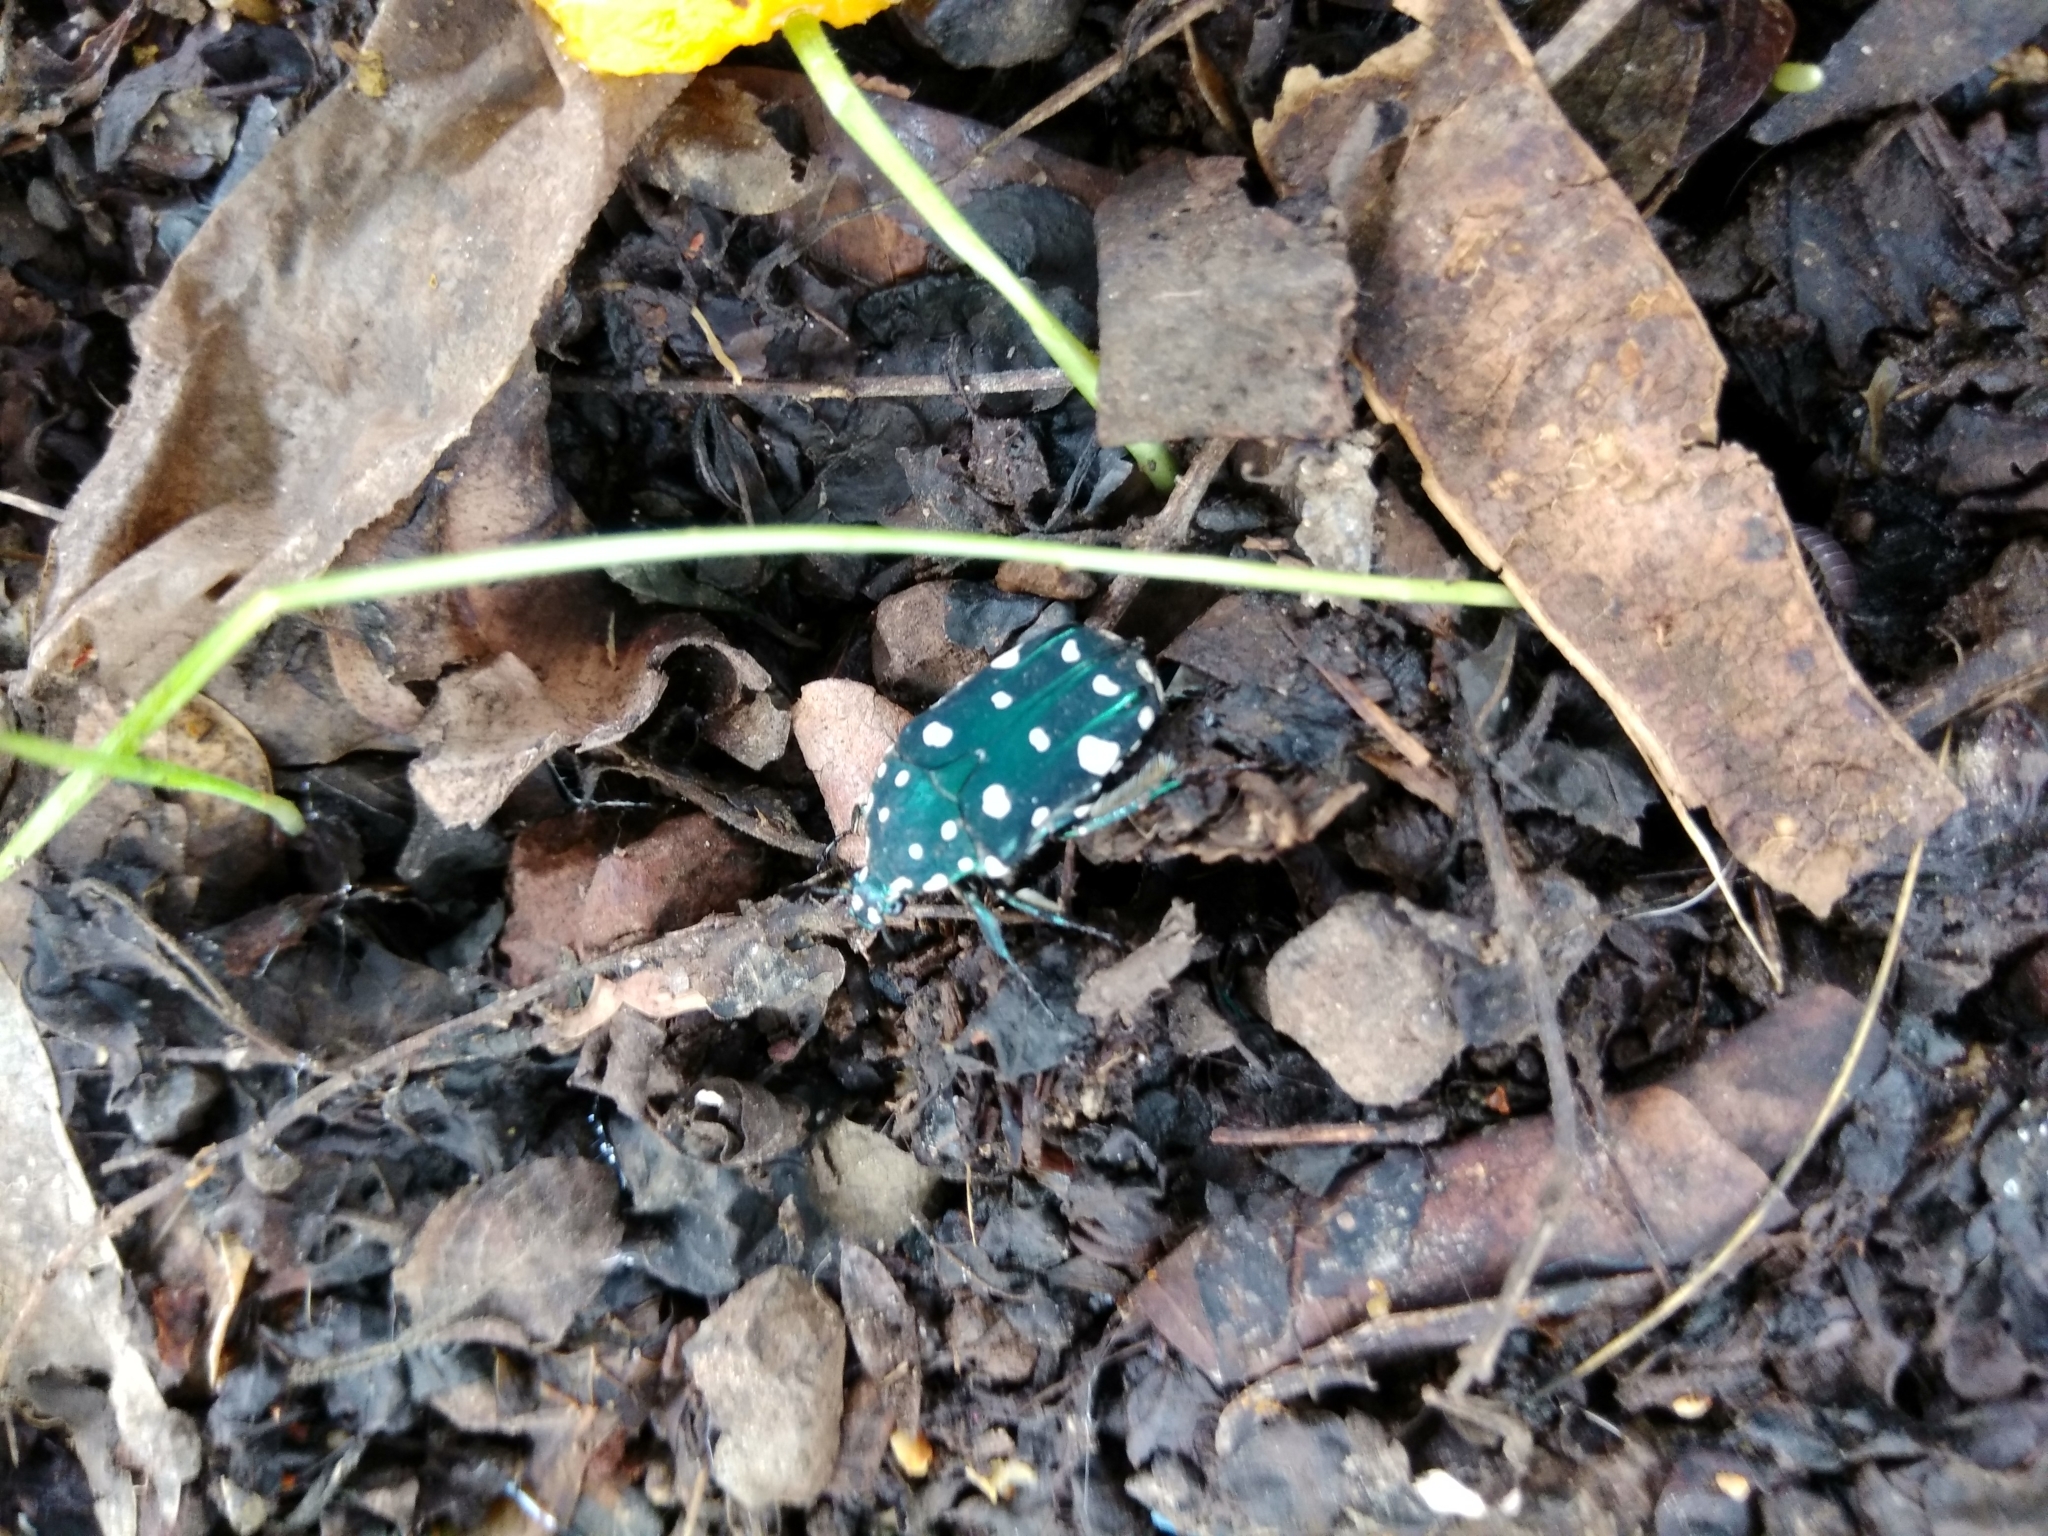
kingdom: Animalia
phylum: Arthropoda
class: Insecta
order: Coleoptera
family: Scarabaeidae
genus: Protaetia
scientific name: Protaetia alboguttata
